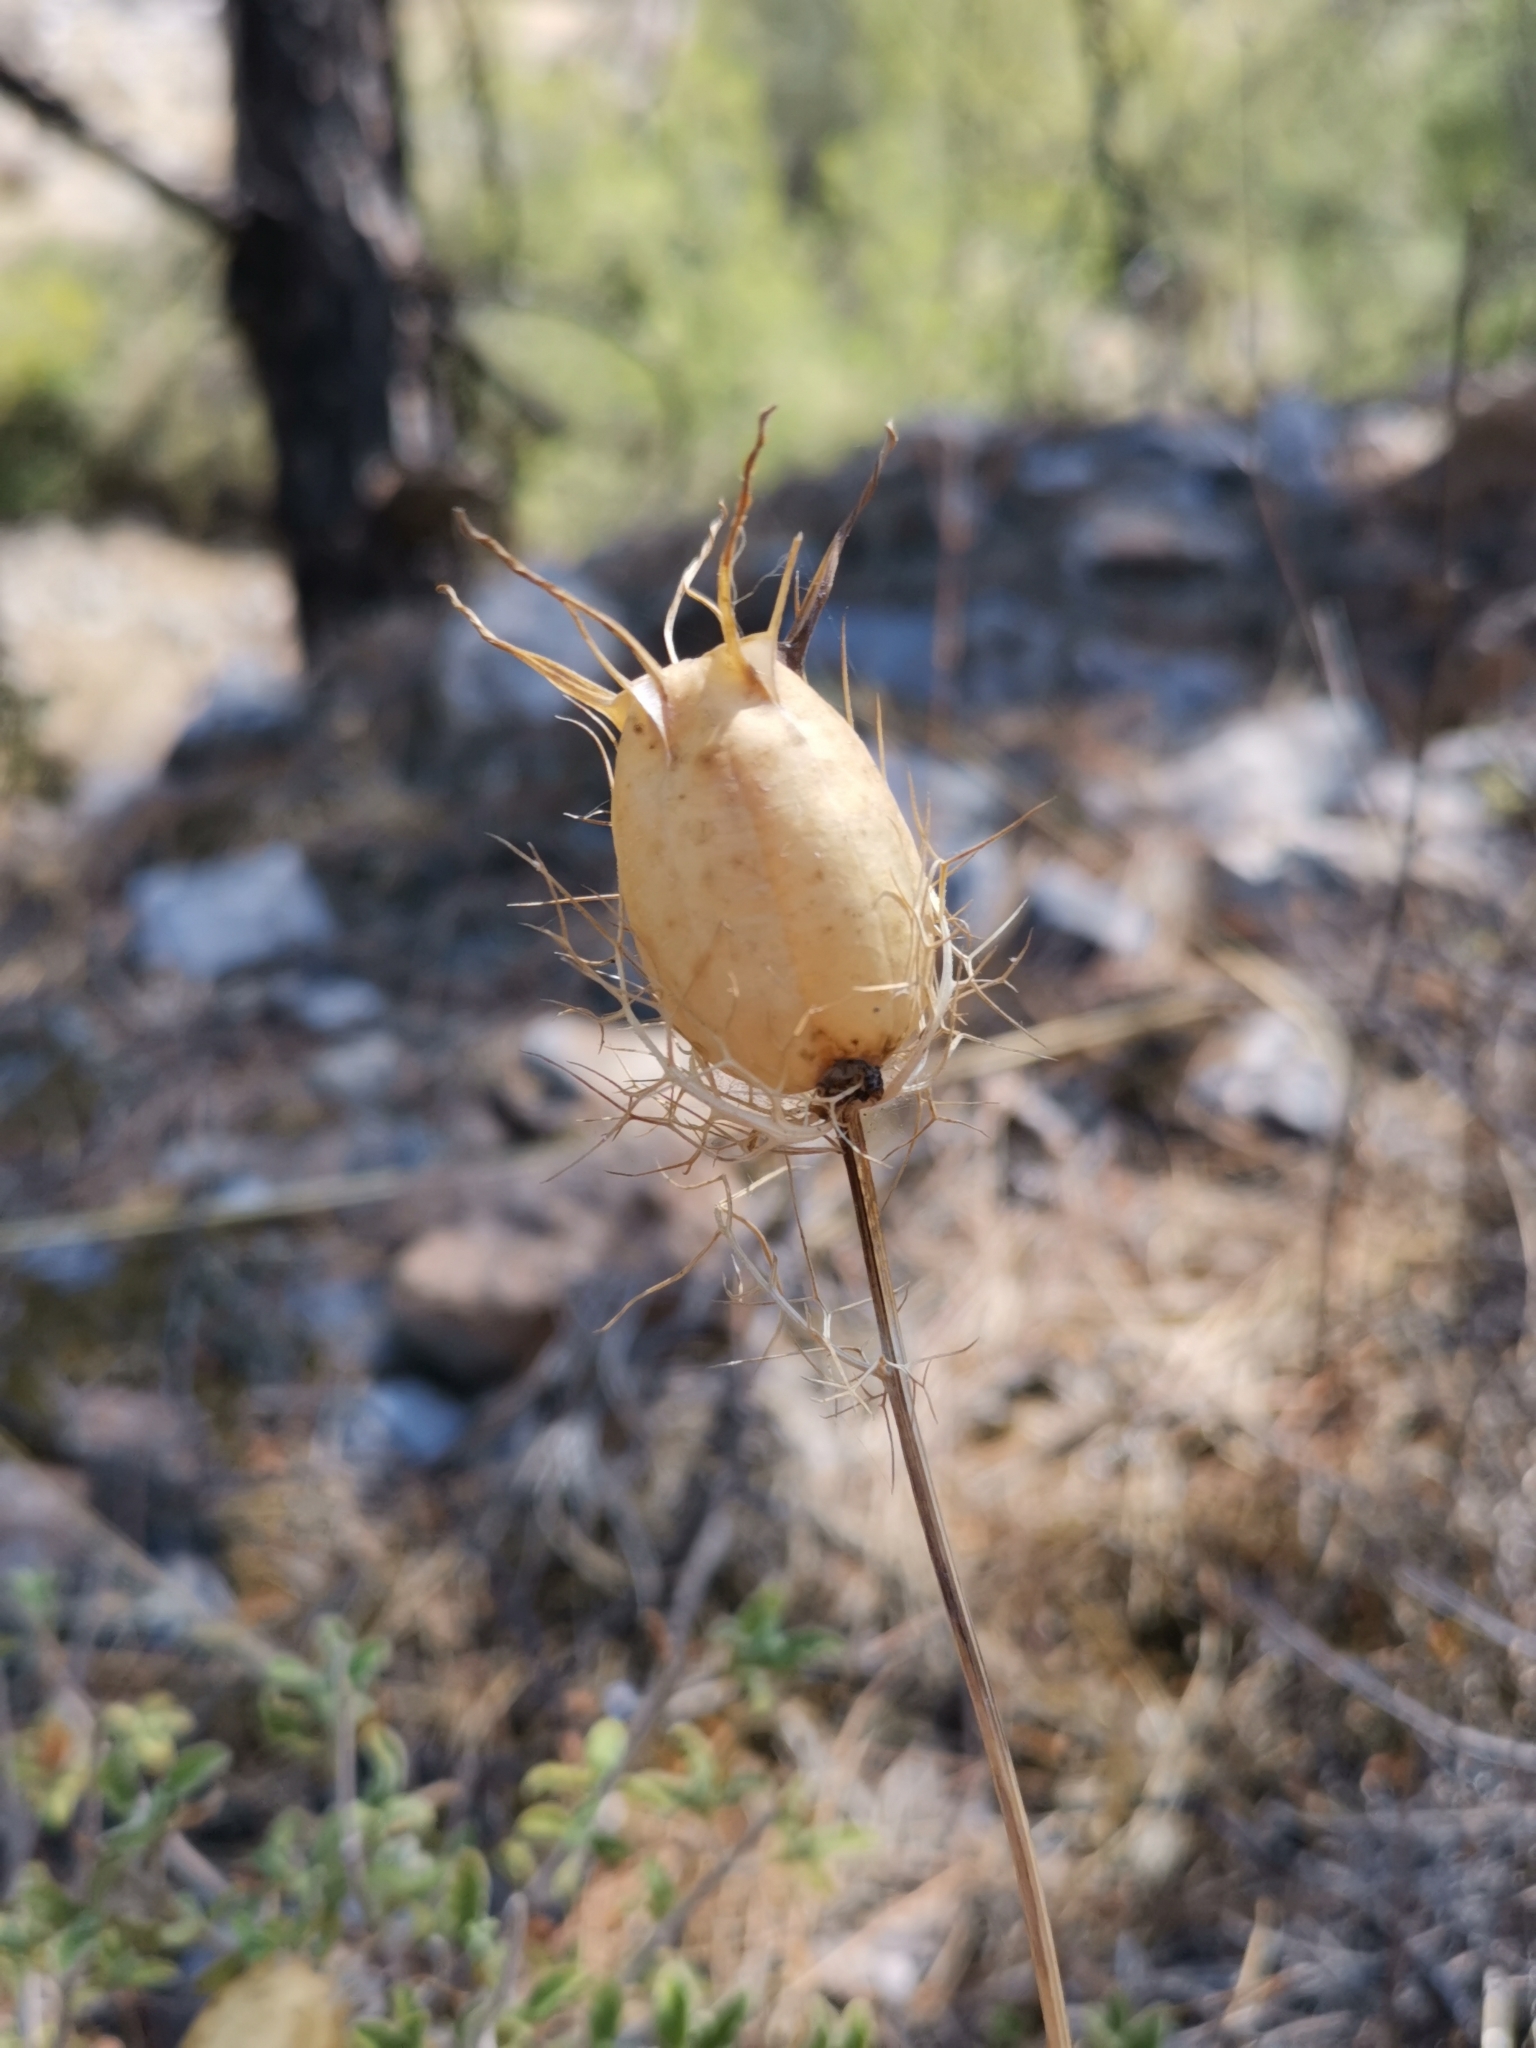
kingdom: Plantae
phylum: Tracheophyta
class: Magnoliopsida
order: Ranunculales
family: Ranunculaceae
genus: Nigella
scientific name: Nigella damascena
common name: Love-in-a-mist
